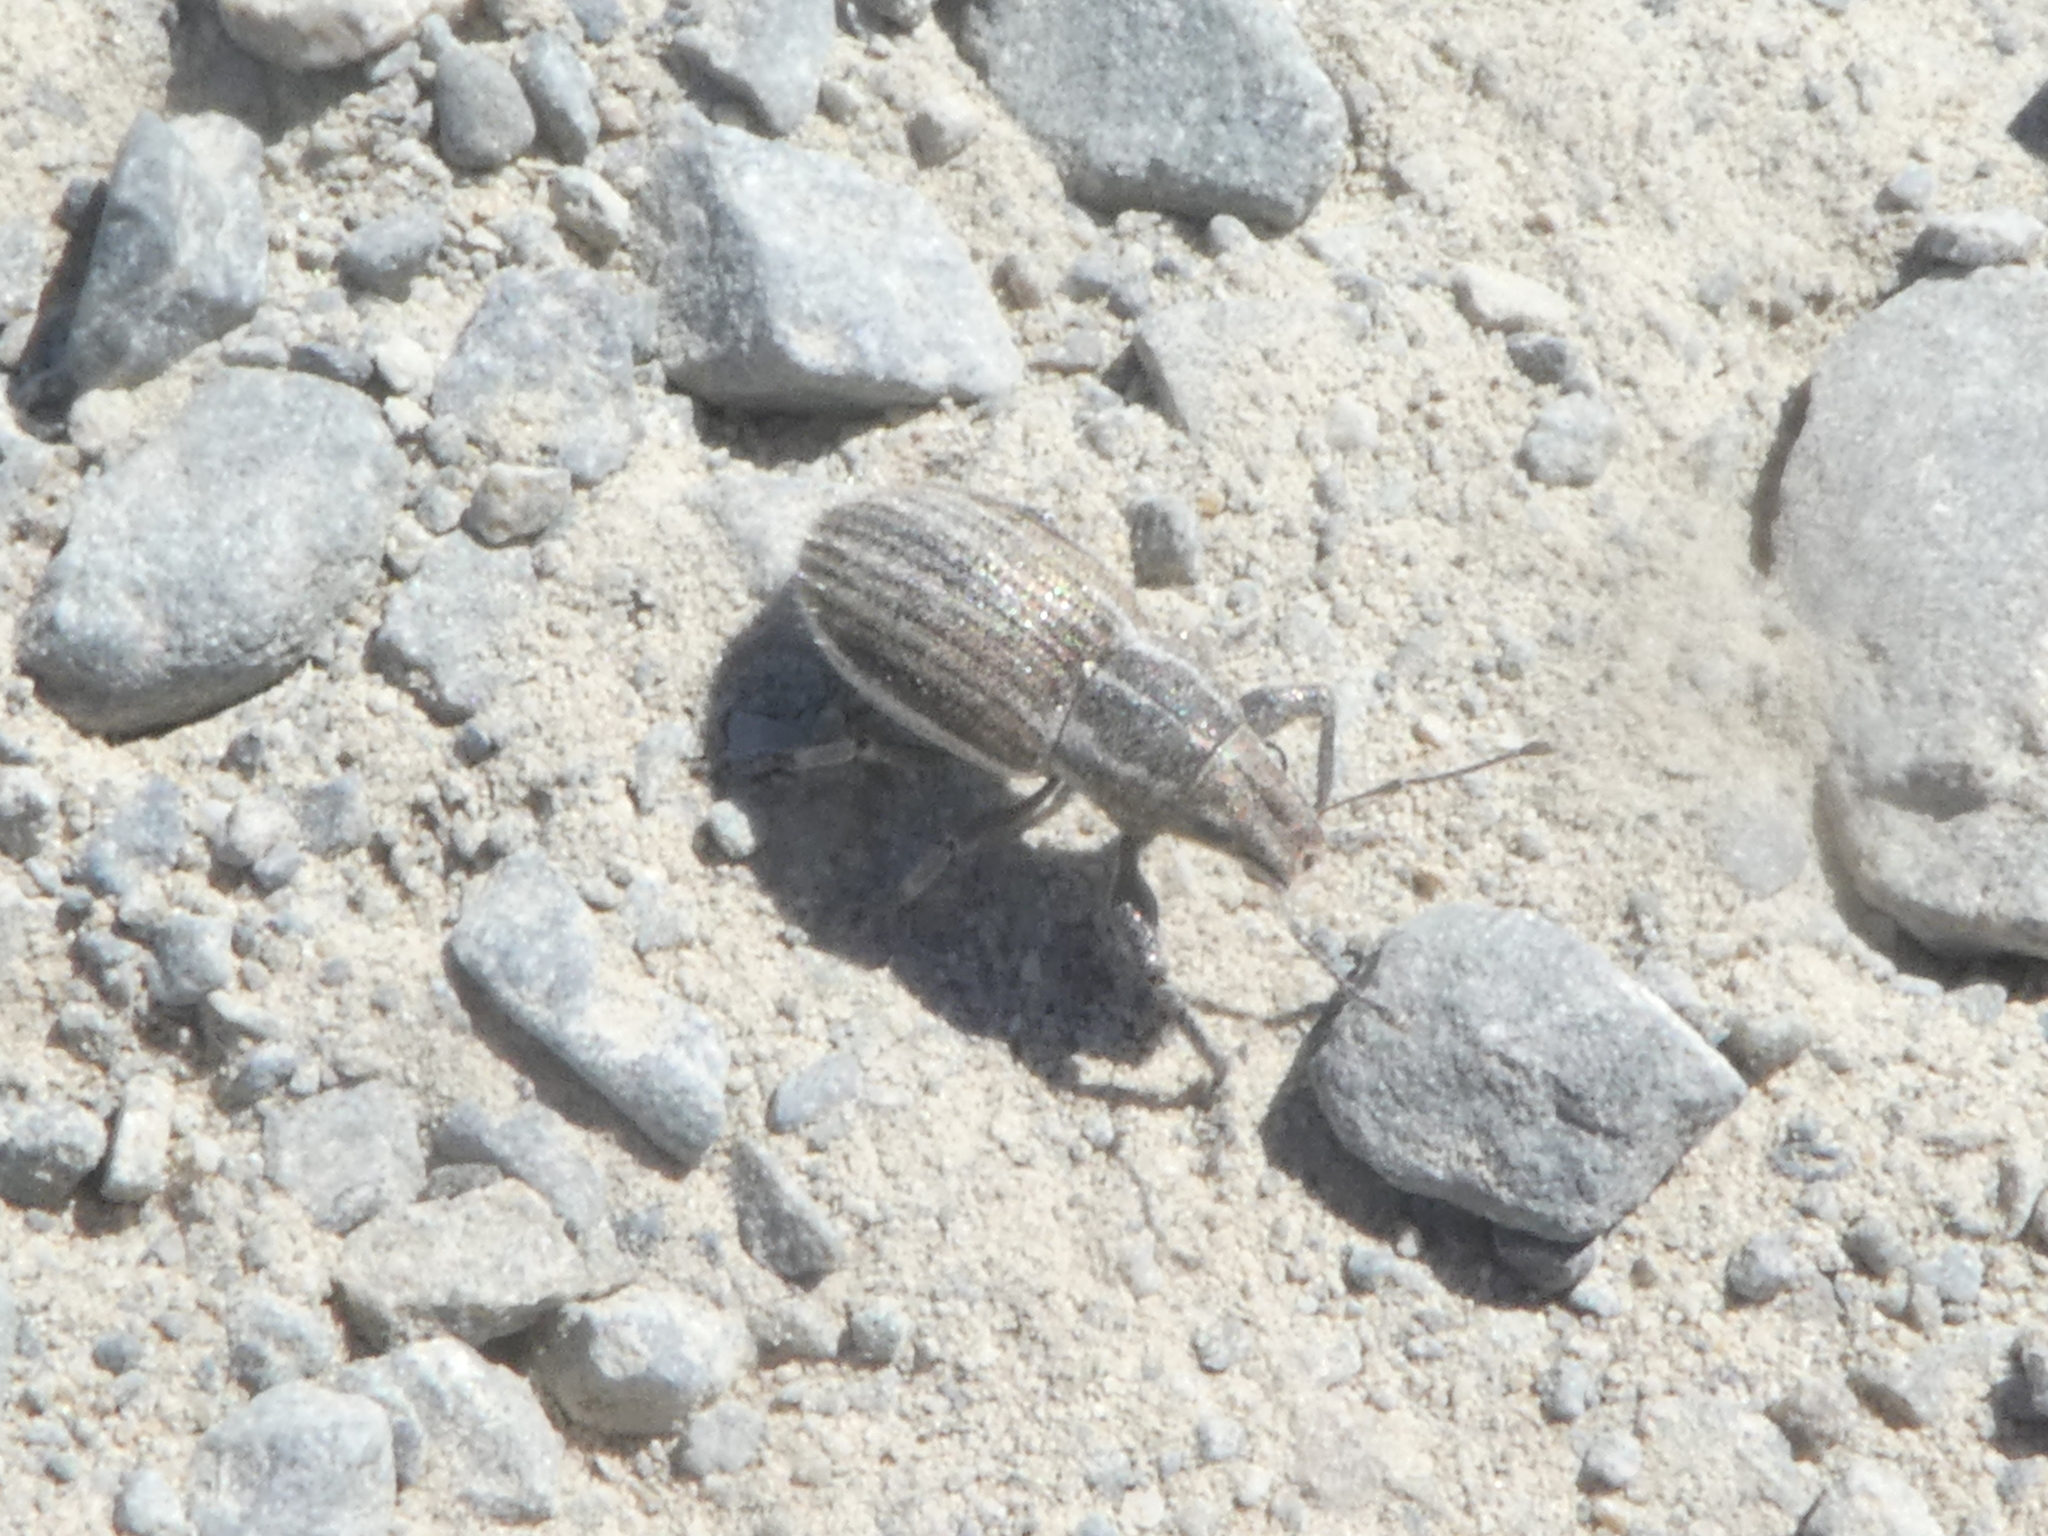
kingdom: Animalia
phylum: Arthropoda
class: Insecta
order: Coleoptera
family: Curculionidae
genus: Naupactus
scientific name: Naupactus leucoloma
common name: Whitefringed beetle
